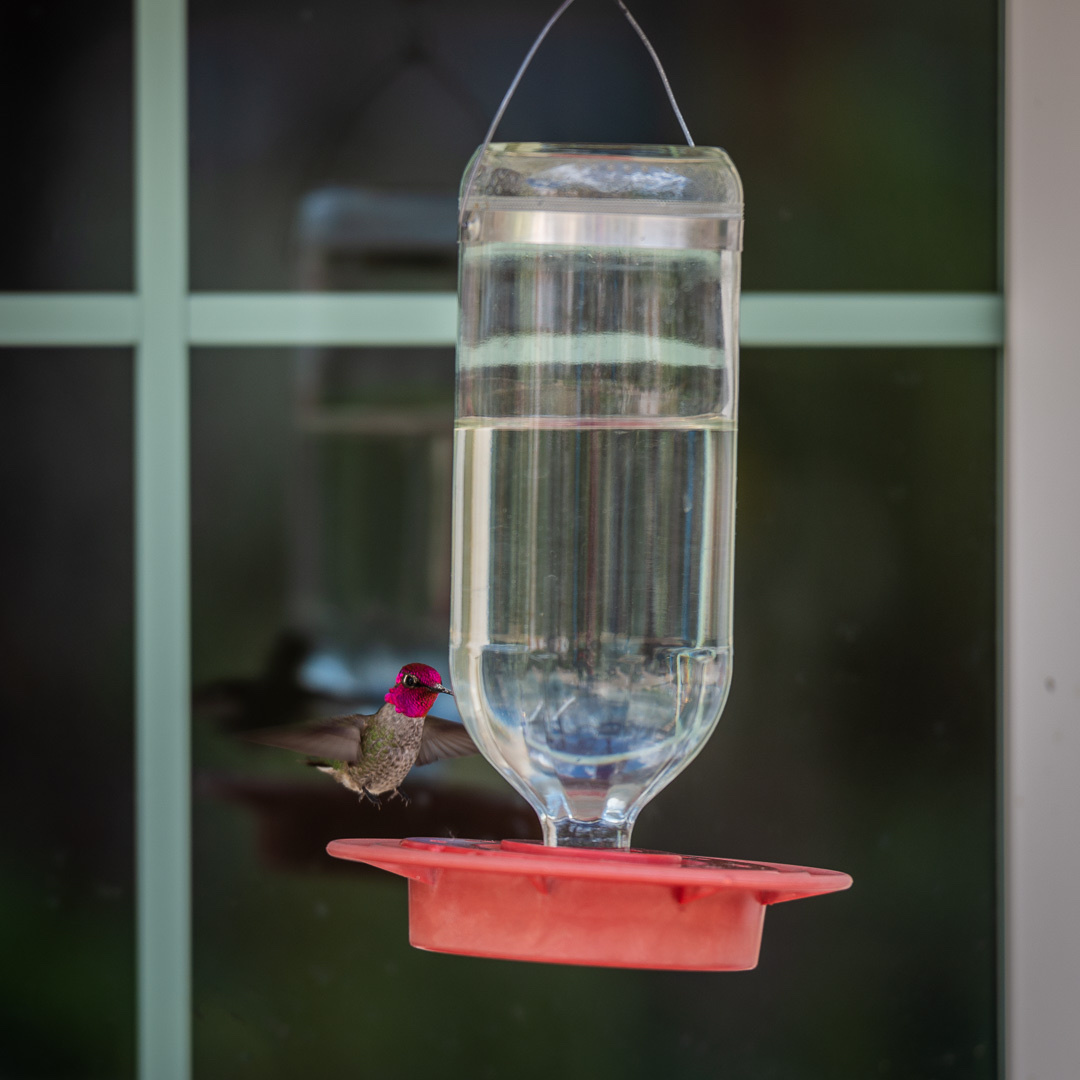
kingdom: Animalia
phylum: Chordata
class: Aves
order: Apodiformes
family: Trochilidae
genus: Calypte
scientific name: Calypte anna
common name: Anna's hummingbird
